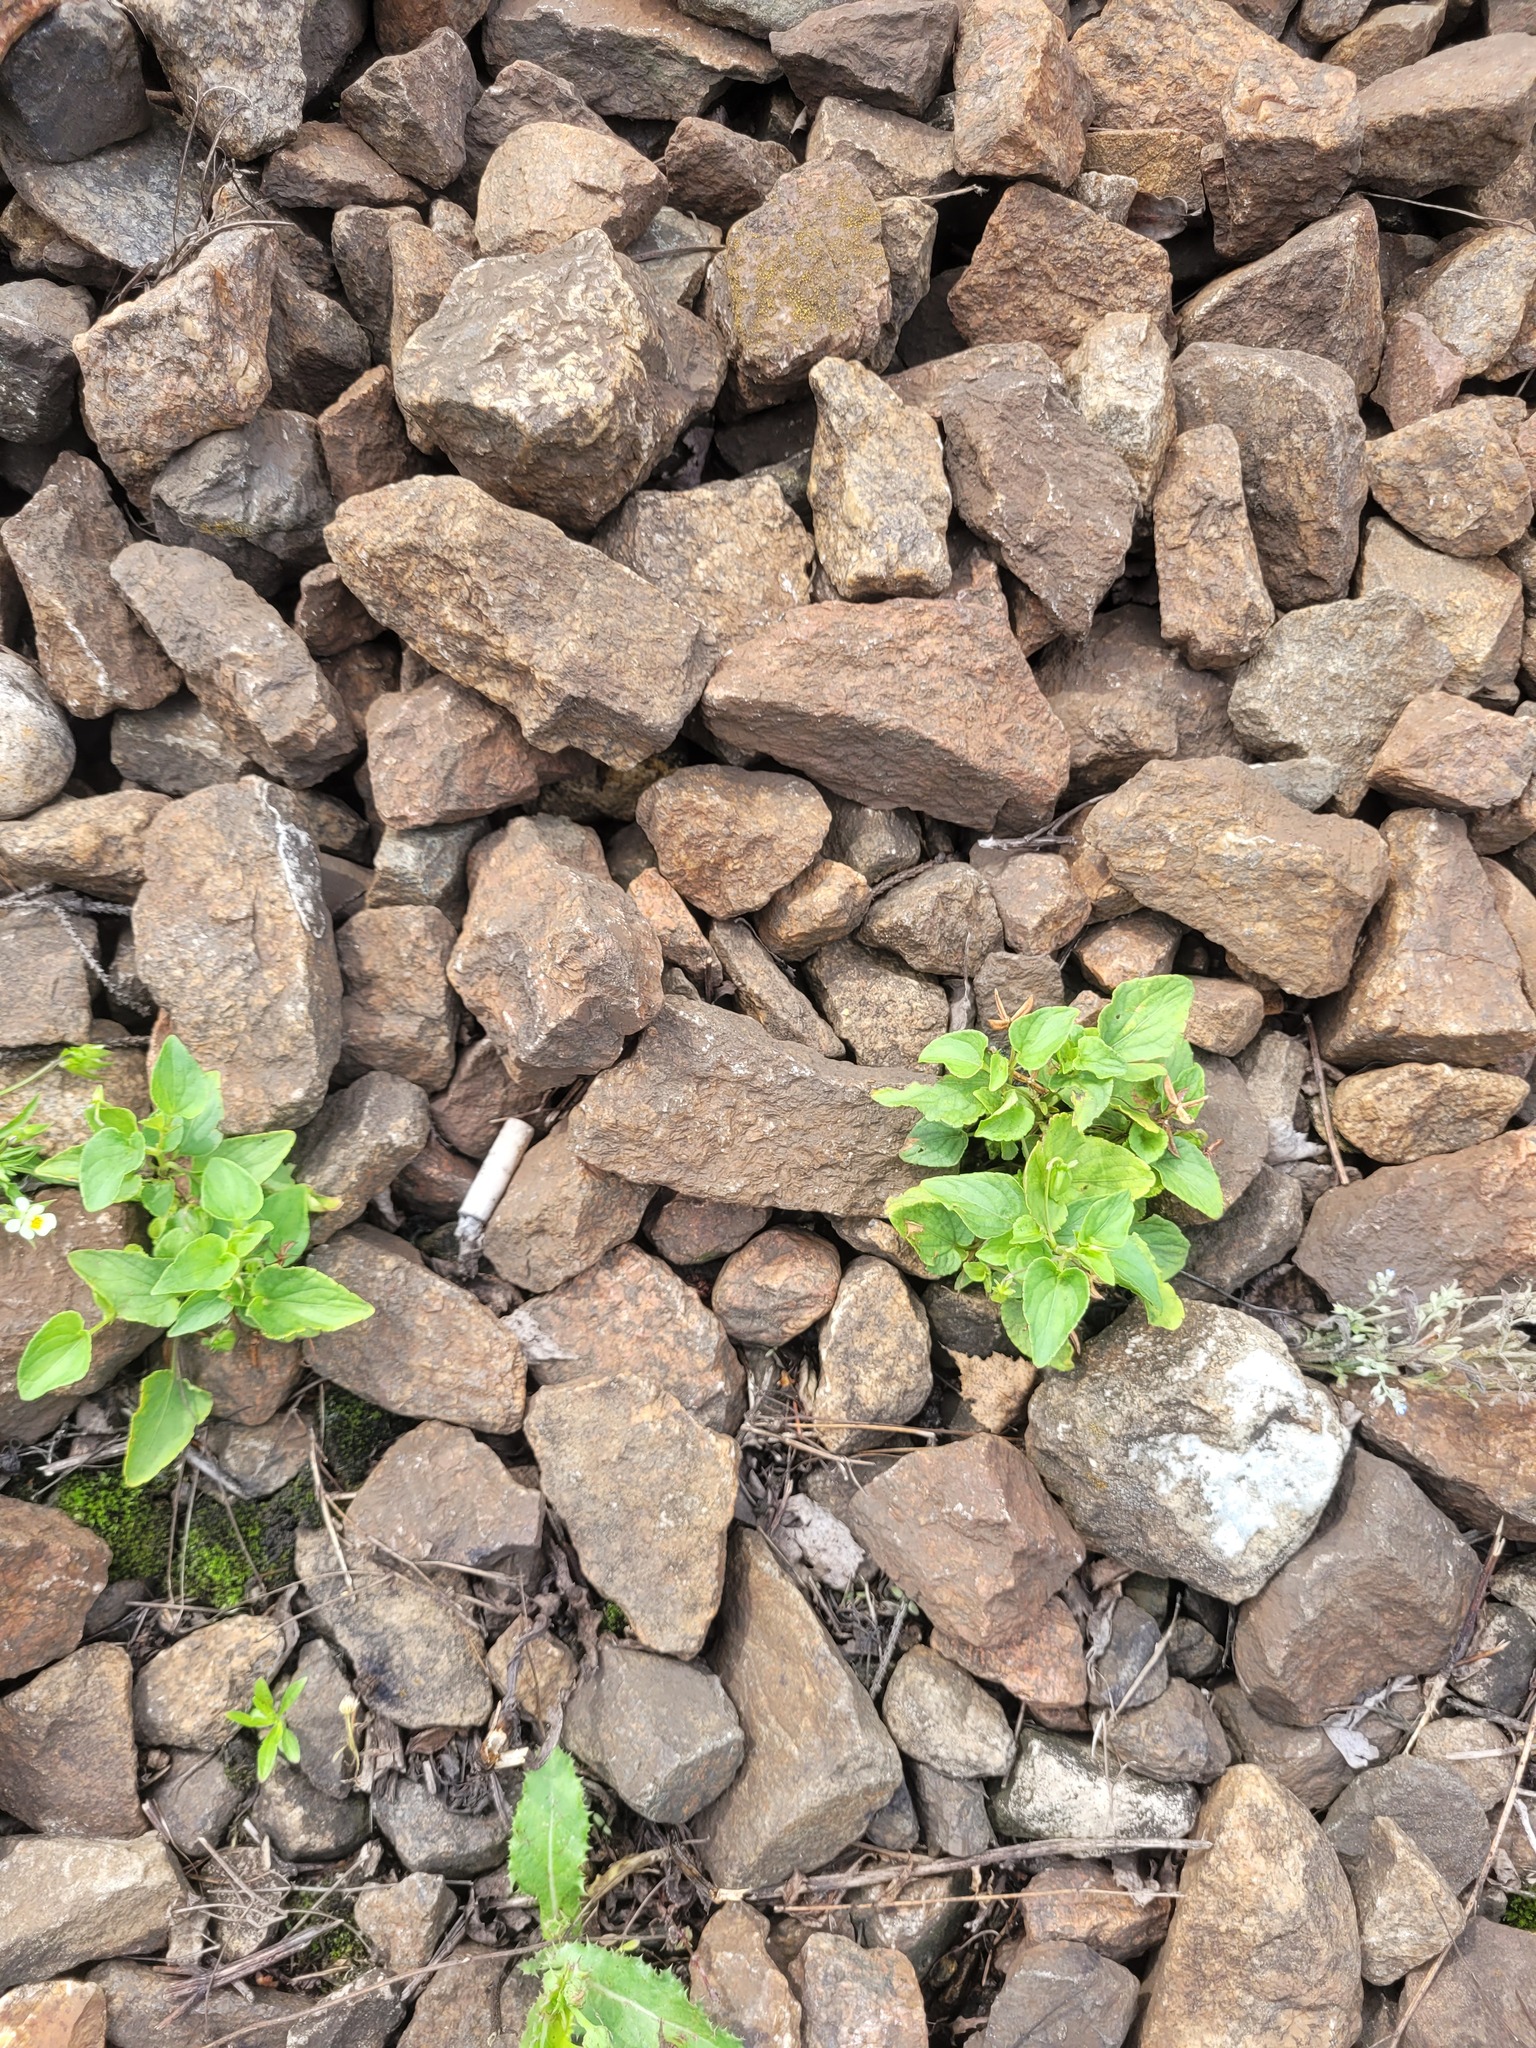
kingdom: Plantae
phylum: Tracheophyta
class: Magnoliopsida
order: Malpighiales
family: Violaceae
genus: Viola
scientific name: Viola canina
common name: Heath dog-violet
